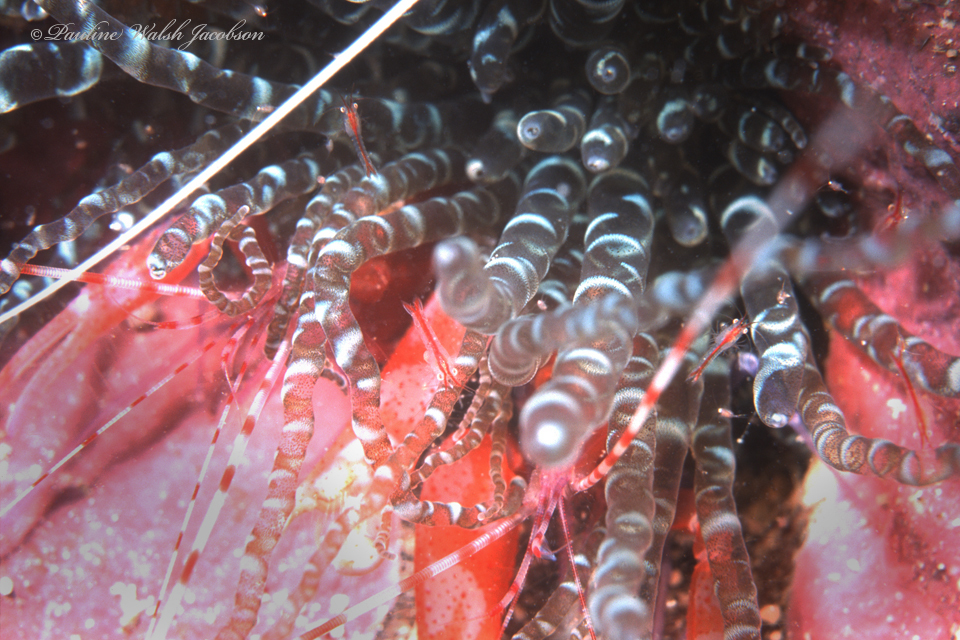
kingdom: Animalia
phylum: Arthropoda
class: Malacostraca
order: Mysida
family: Mysidae
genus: Heteromysis
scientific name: Heteromysis actiniae
